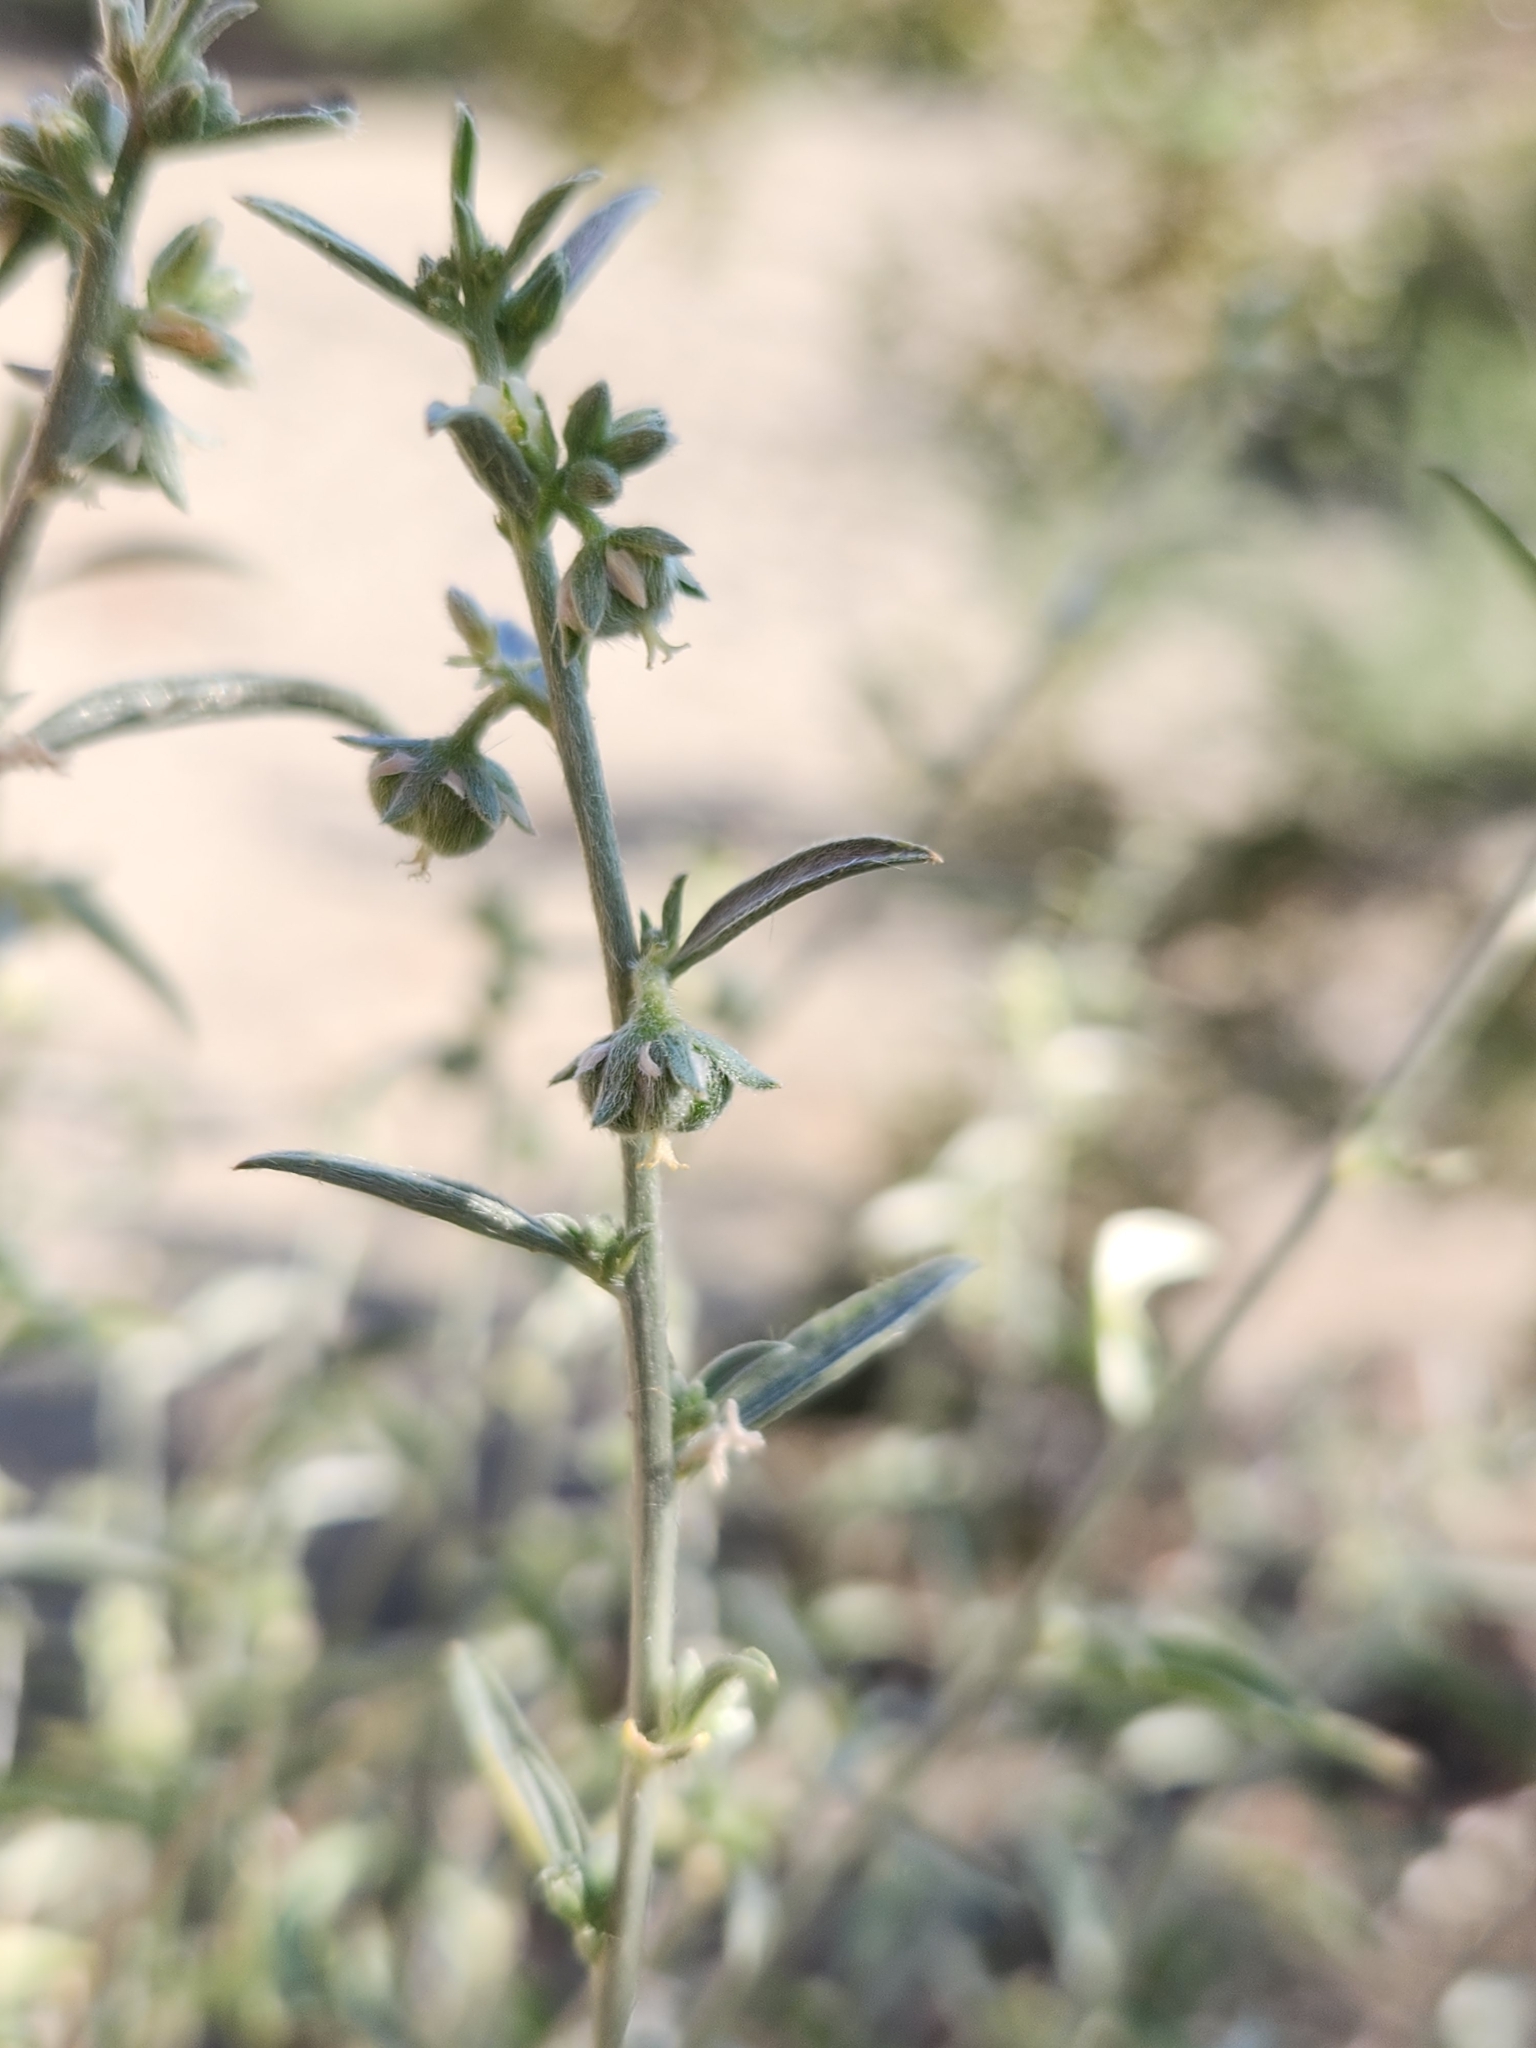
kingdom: Plantae
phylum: Tracheophyta
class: Magnoliopsida
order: Malpighiales
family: Euphorbiaceae
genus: Ditaxis
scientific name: Ditaxis lanceolata
